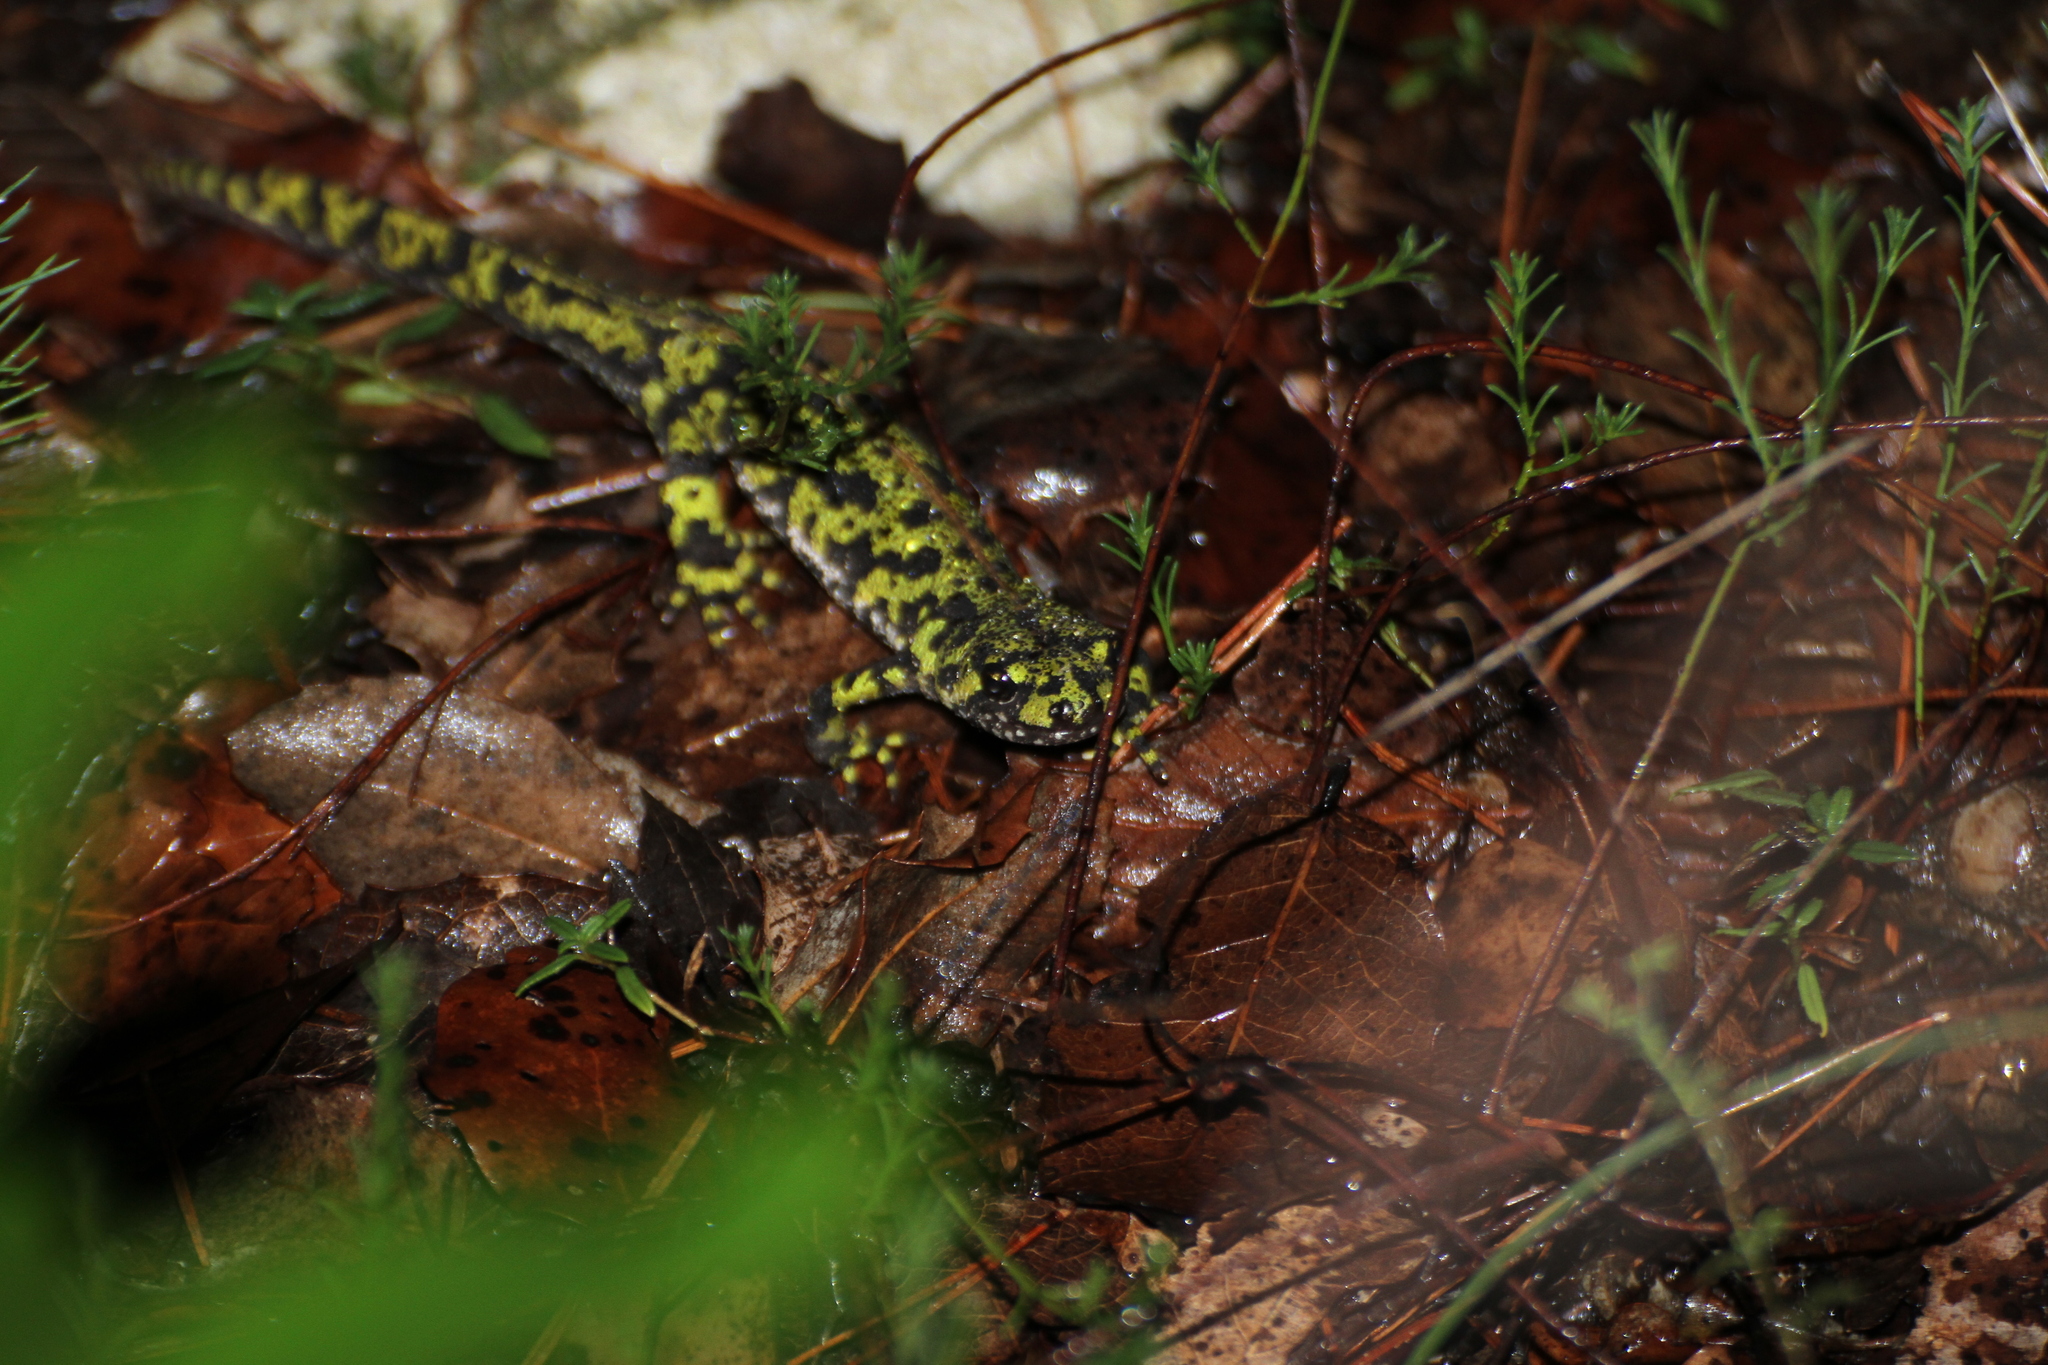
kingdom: Animalia
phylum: Chordata
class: Amphibia
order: Caudata
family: Salamandridae
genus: Triturus
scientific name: Triturus marmoratus
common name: Marbled newt
